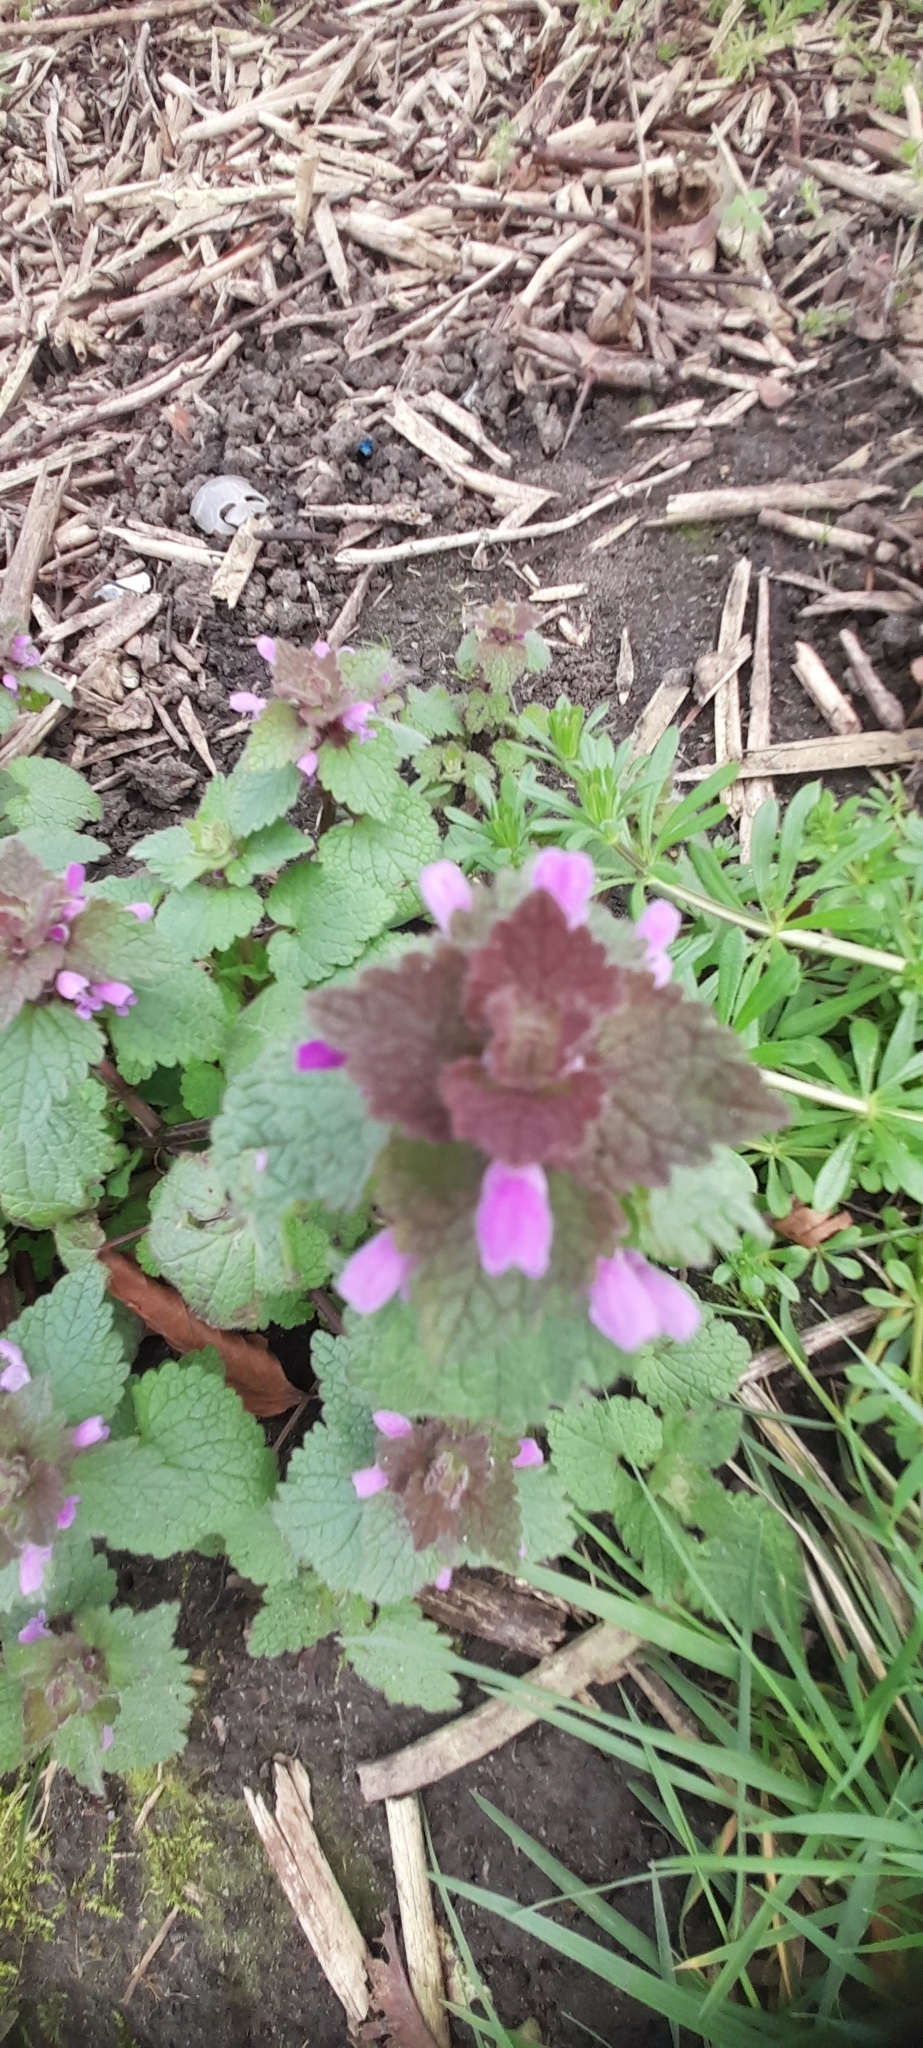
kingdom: Plantae
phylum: Tracheophyta
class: Magnoliopsida
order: Lamiales
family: Lamiaceae
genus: Lamium
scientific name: Lamium purpureum
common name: Red dead-nettle
